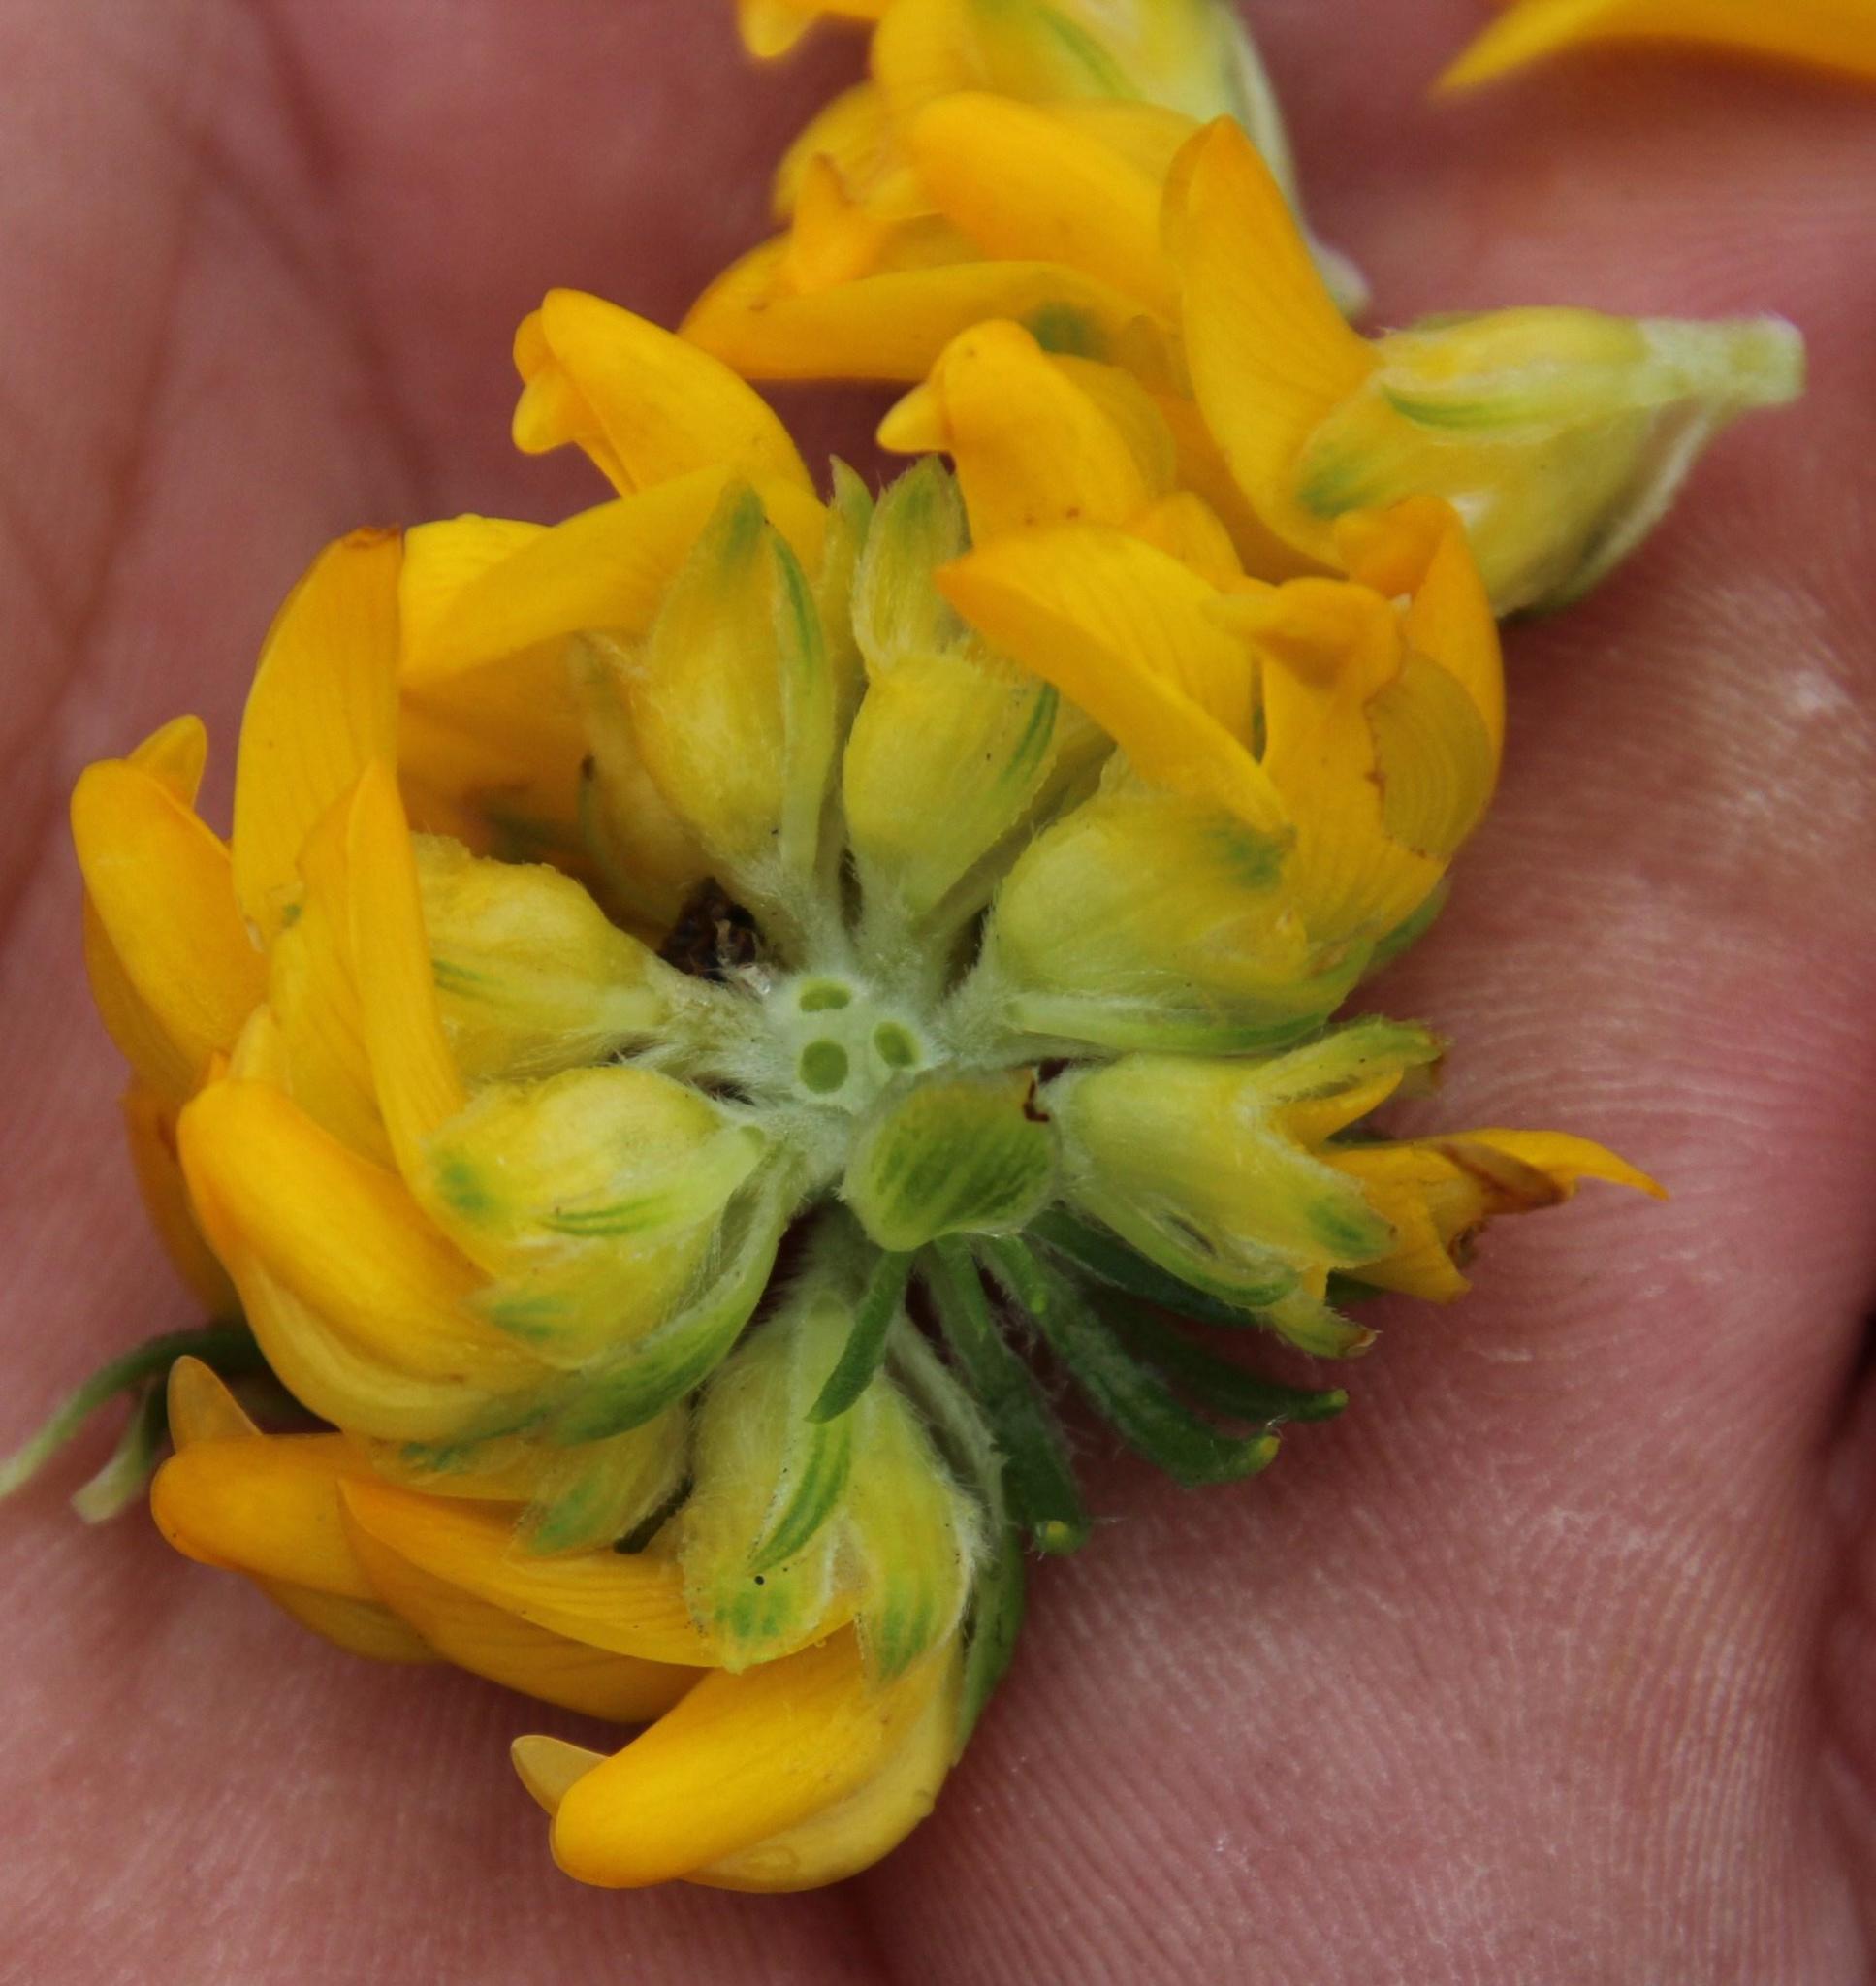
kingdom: Plantae
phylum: Tracheophyta
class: Magnoliopsida
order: Fabales
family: Fabaceae
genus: Aspalathus
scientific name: Aspalathus capitata
